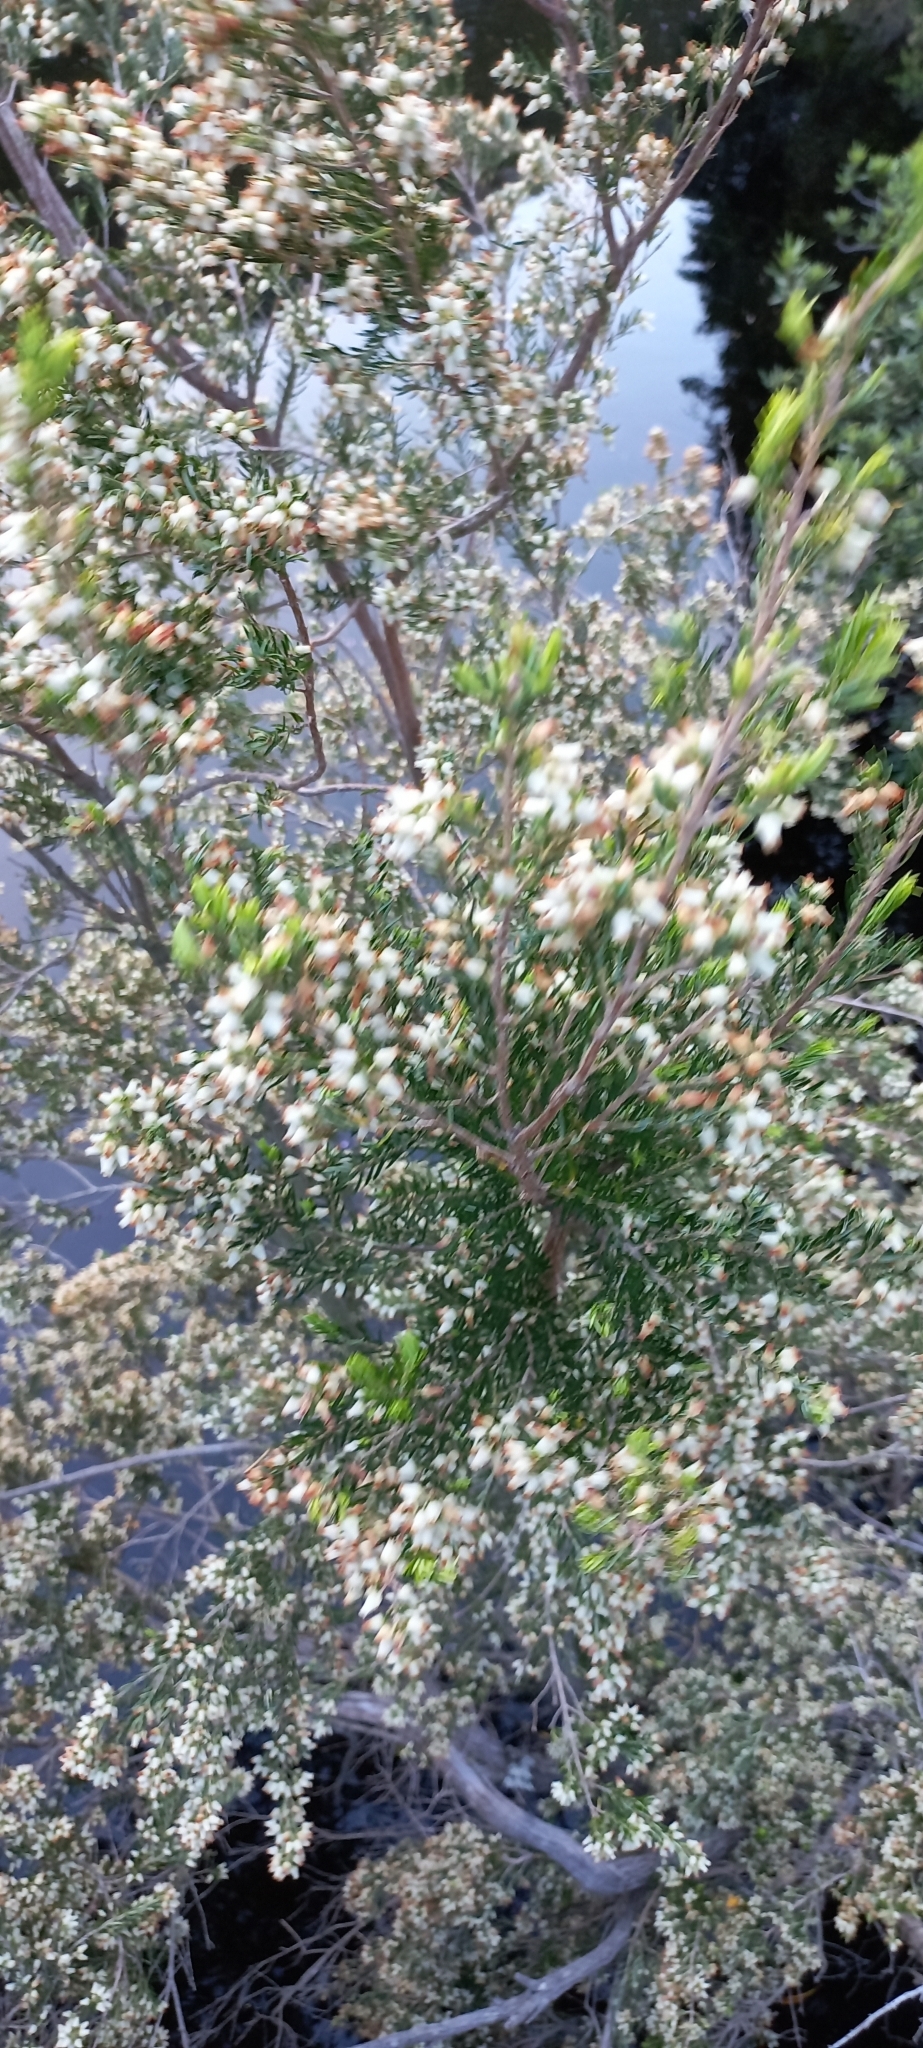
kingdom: Plantae
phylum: Tracheophyta
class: Magnoliopsida
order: Ericales
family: Ericaceae
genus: Erica
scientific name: Erica caffra
